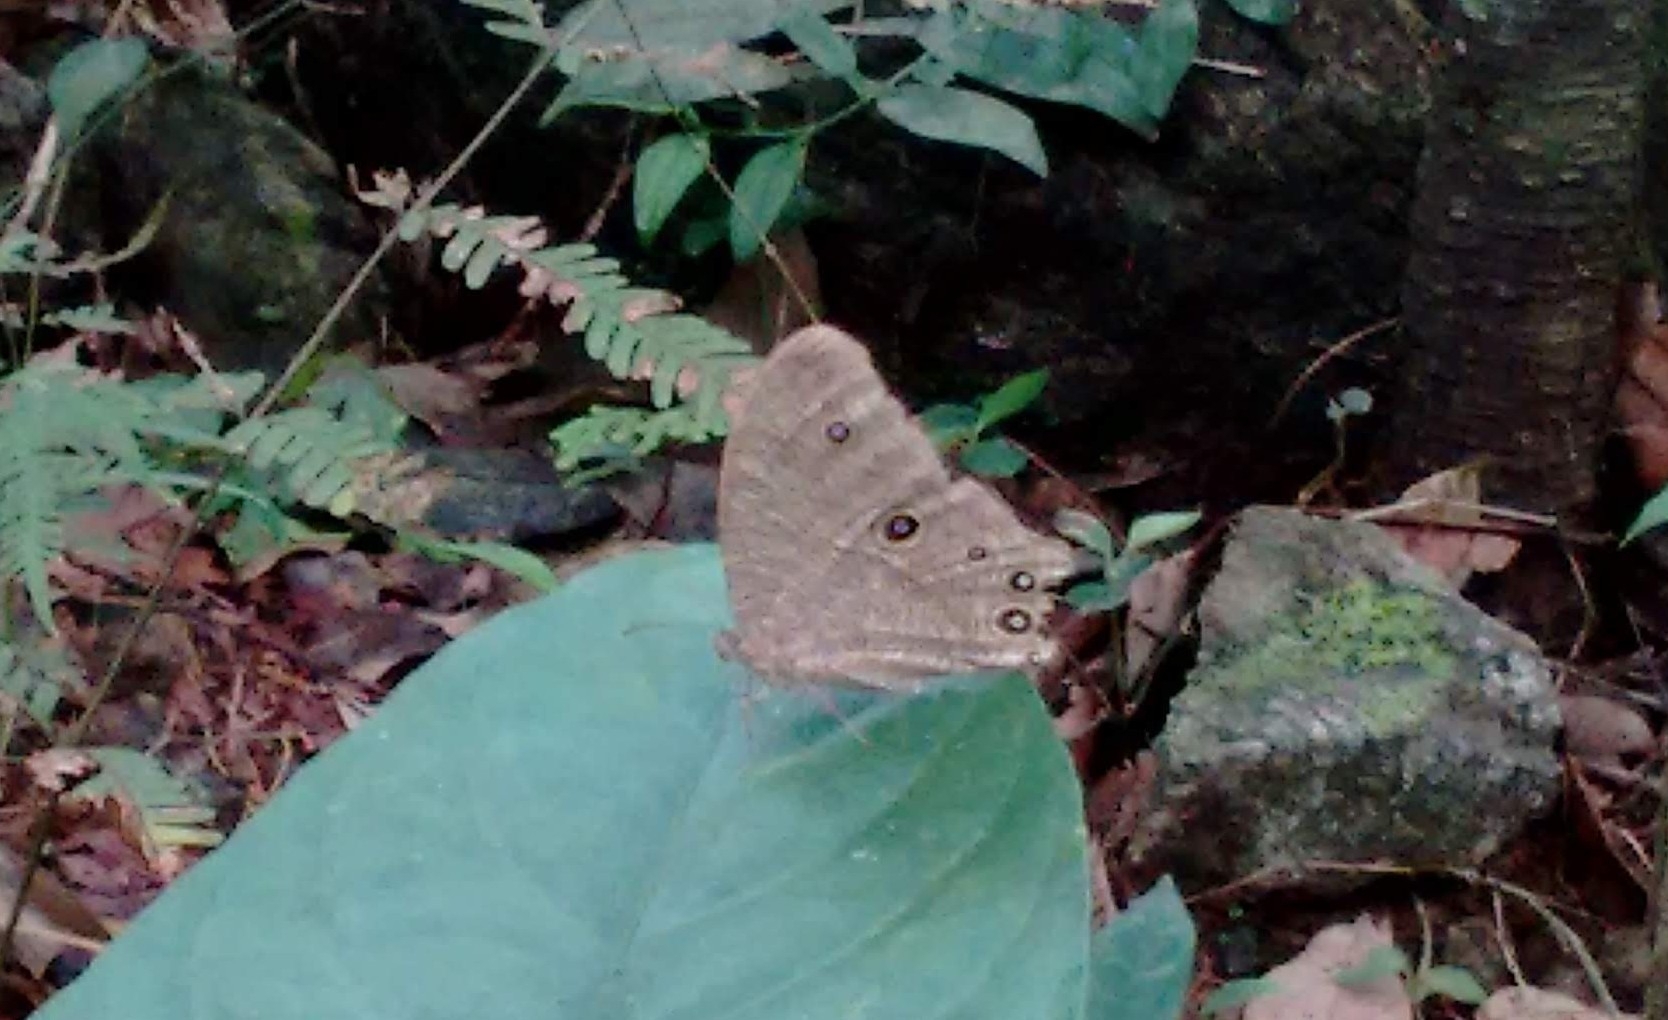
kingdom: Animalia
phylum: Arthropoda
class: Insecta
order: Lepidoptera
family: Nymphalidae
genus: Melanitis
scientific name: Melanitis leda
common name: Twilight brown
